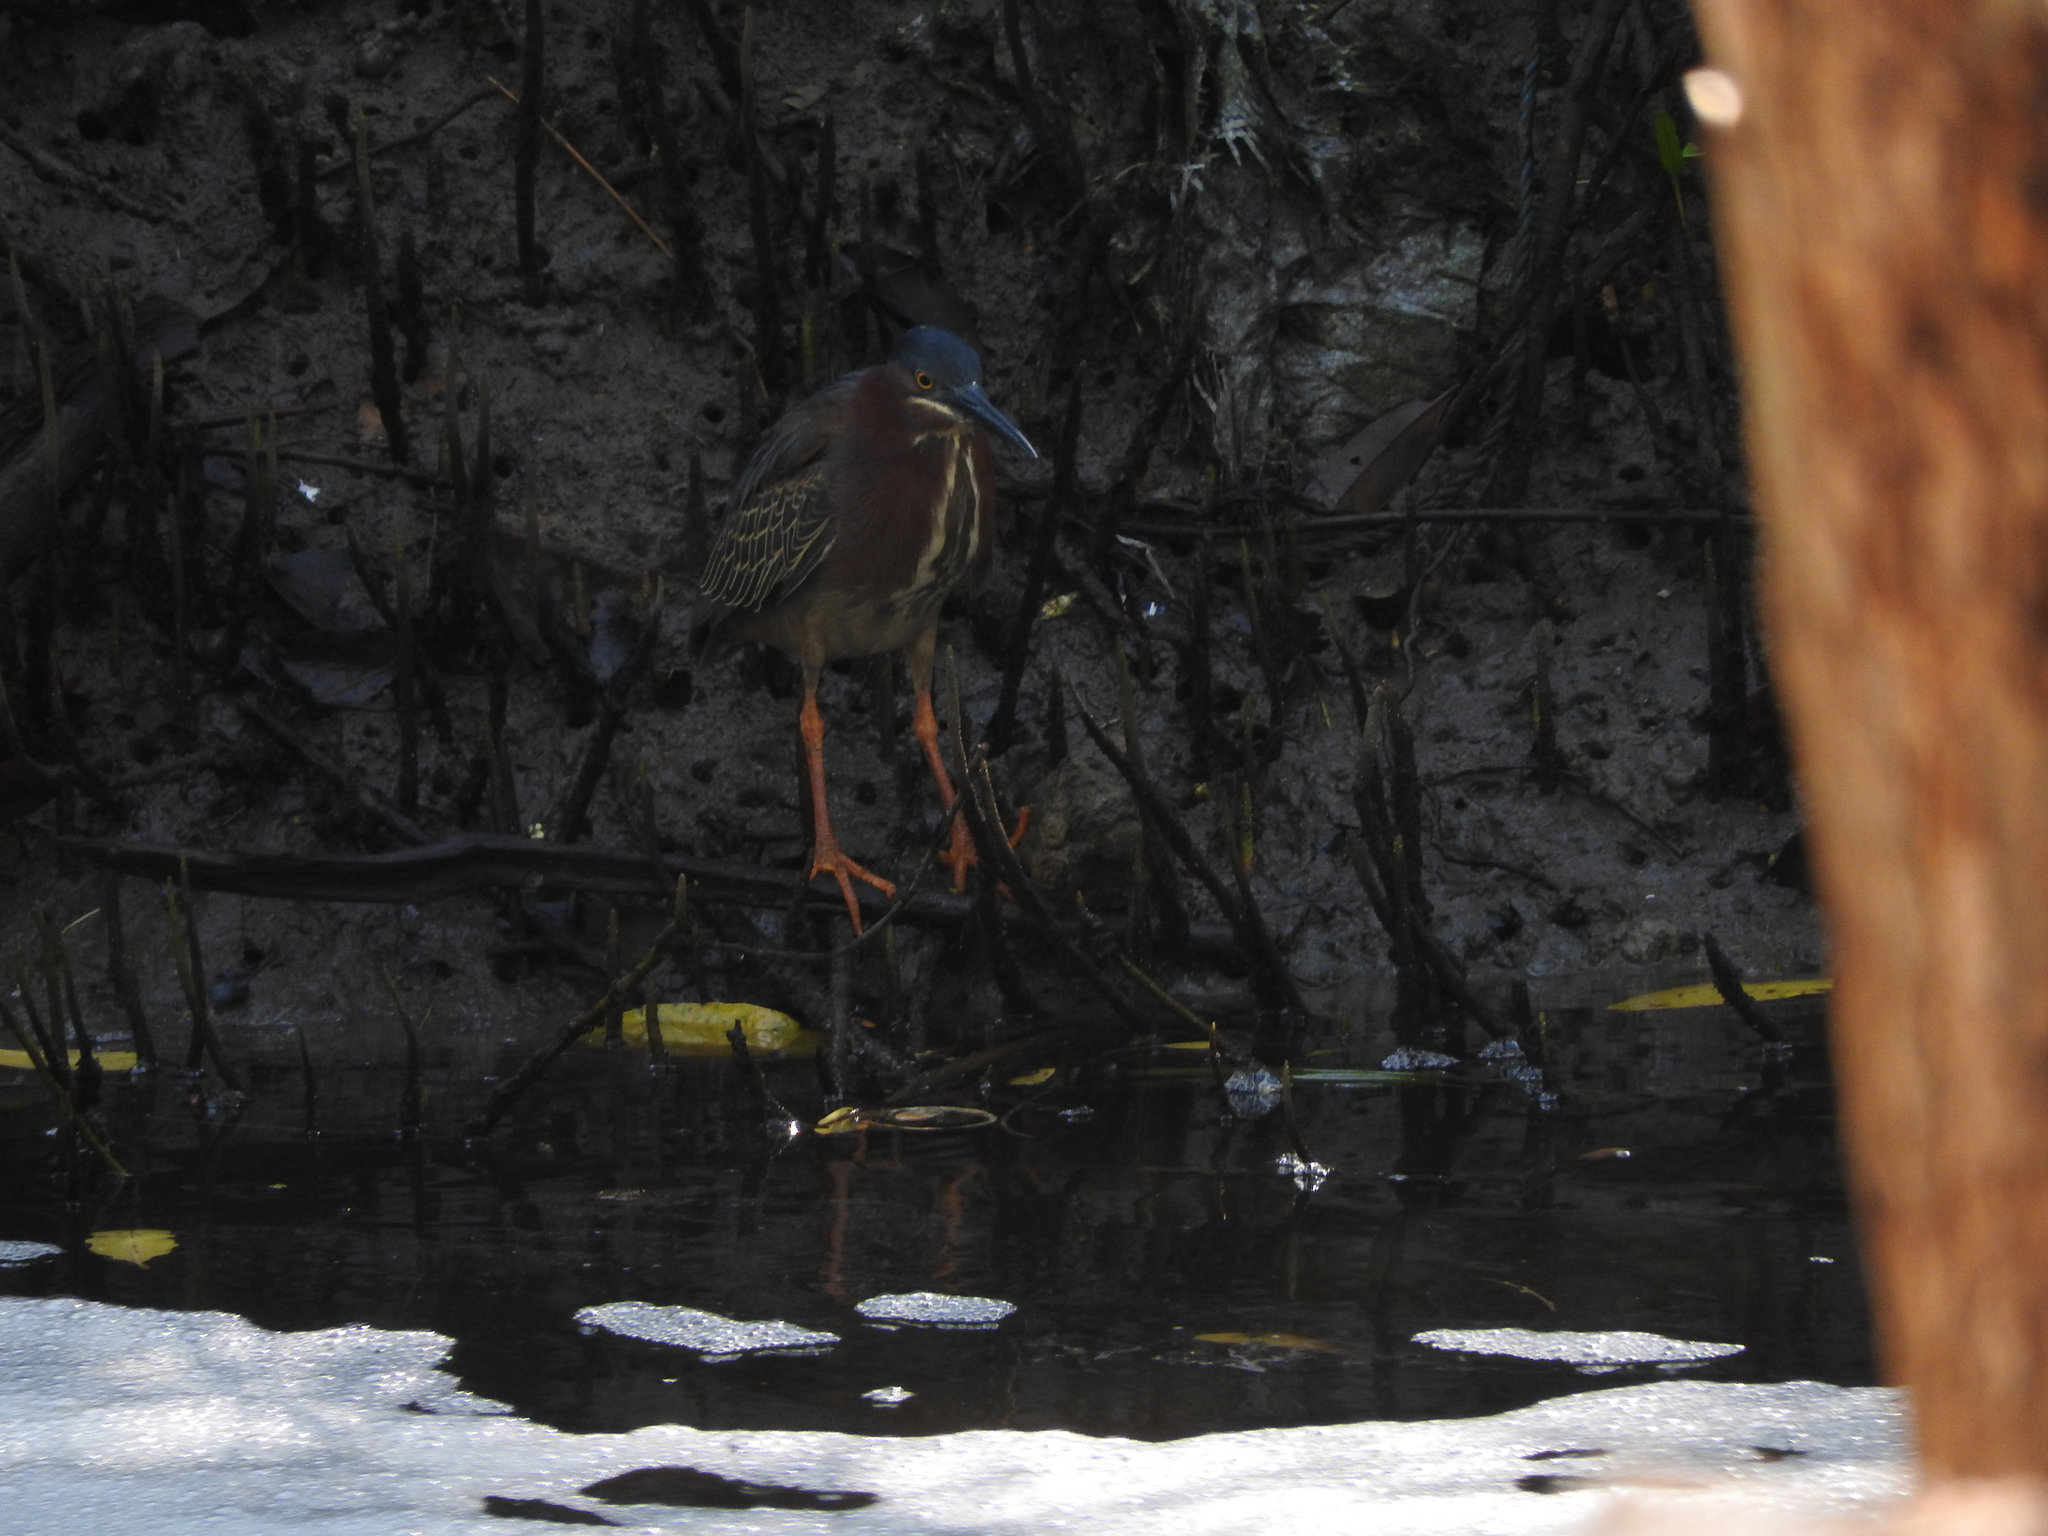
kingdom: Animalia
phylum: Chordata
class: Aves
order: Pelecaniformes
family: Ardeidae
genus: Butorides
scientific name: Butorides virescens
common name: Green heron
